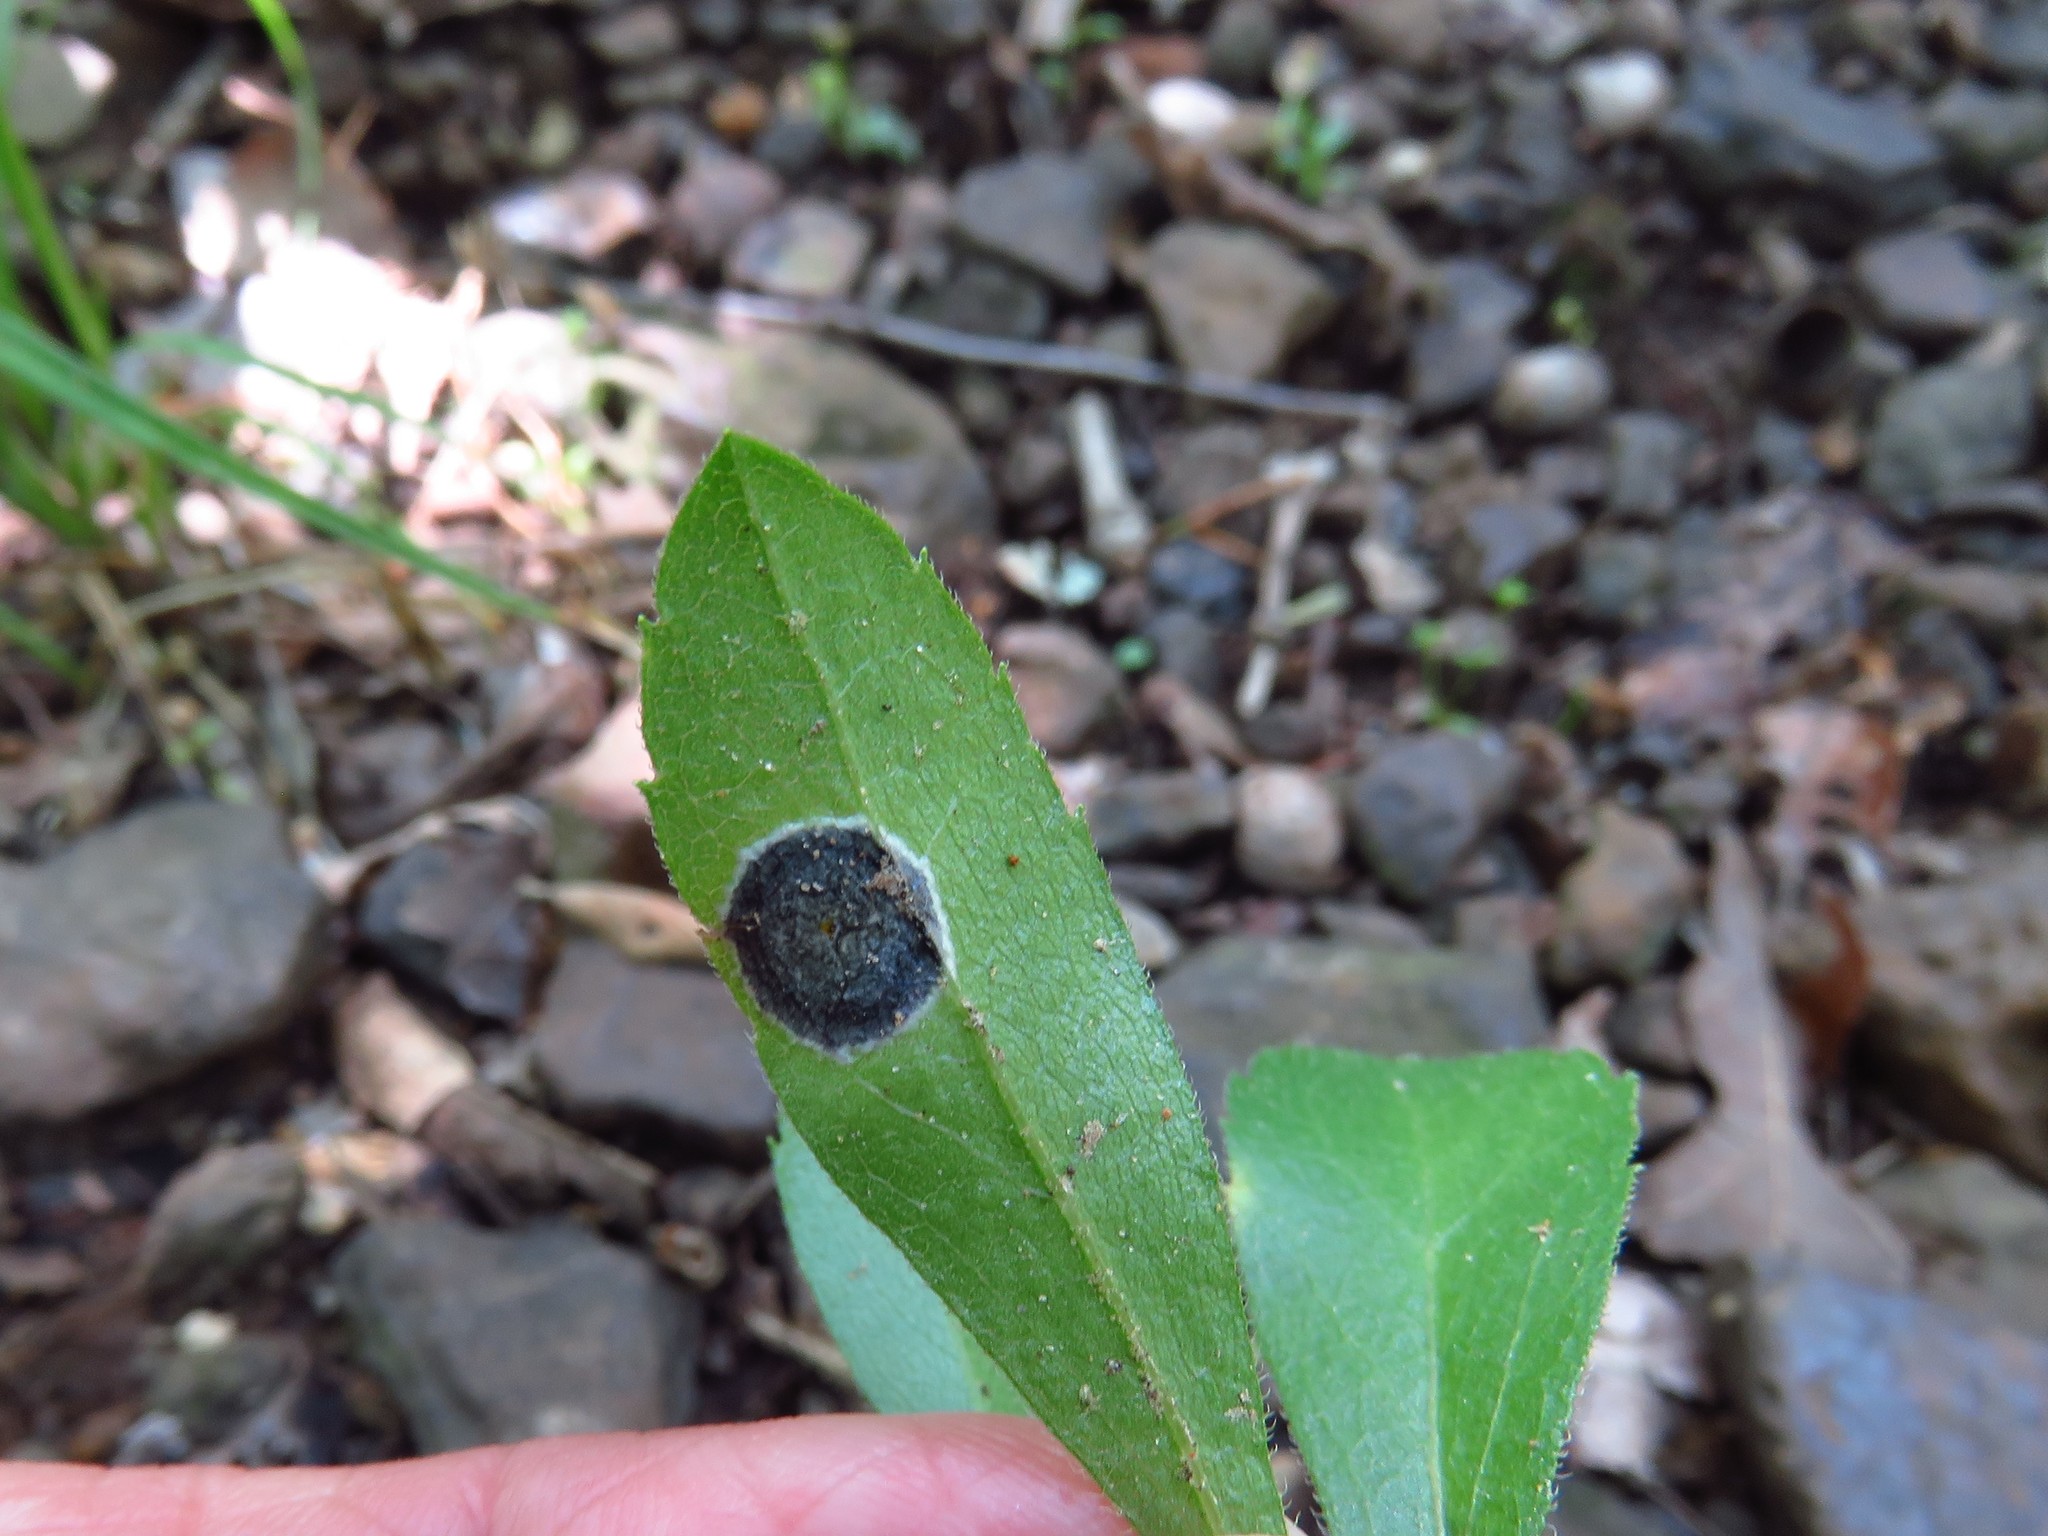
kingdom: Animalia
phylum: Arthropoda
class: Insecta
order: Diptera
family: Cecidomyiidae
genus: Asteromyia
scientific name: Asteromyia carbonifera
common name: Carbonifera goldenrod gall midge
